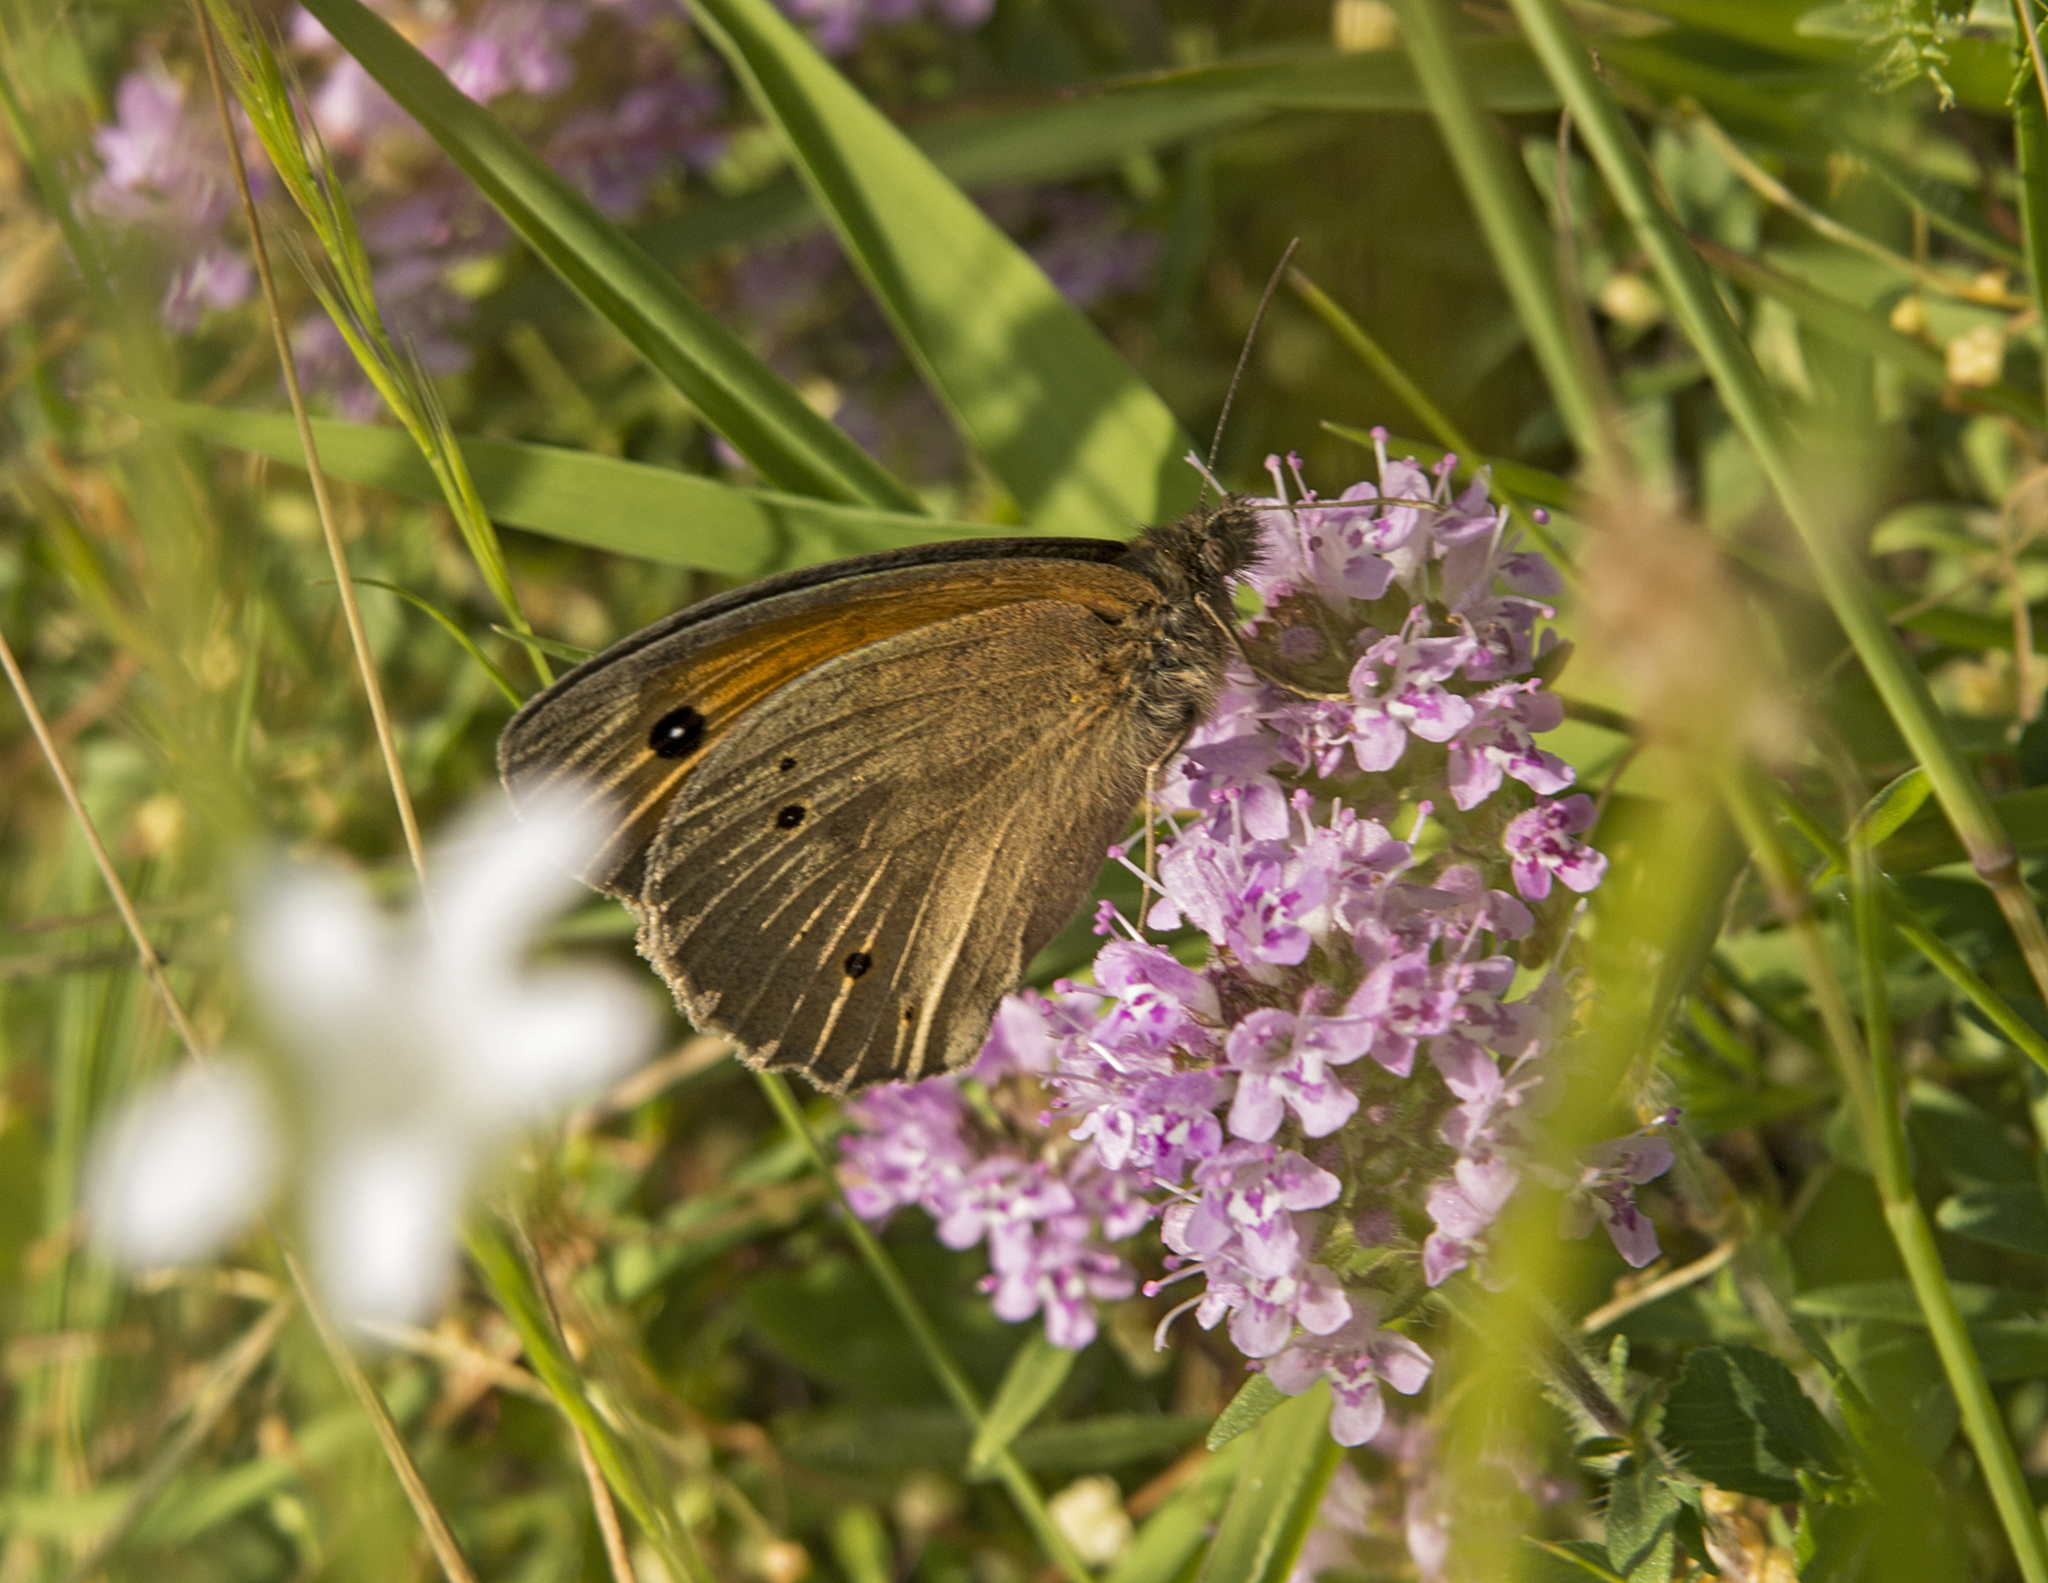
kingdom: Animalia
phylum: Arthropoda
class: Insecta
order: Lepidoptera
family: Nymphalidae
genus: Maniola
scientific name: Maniola jurtina
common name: Meadow brown
